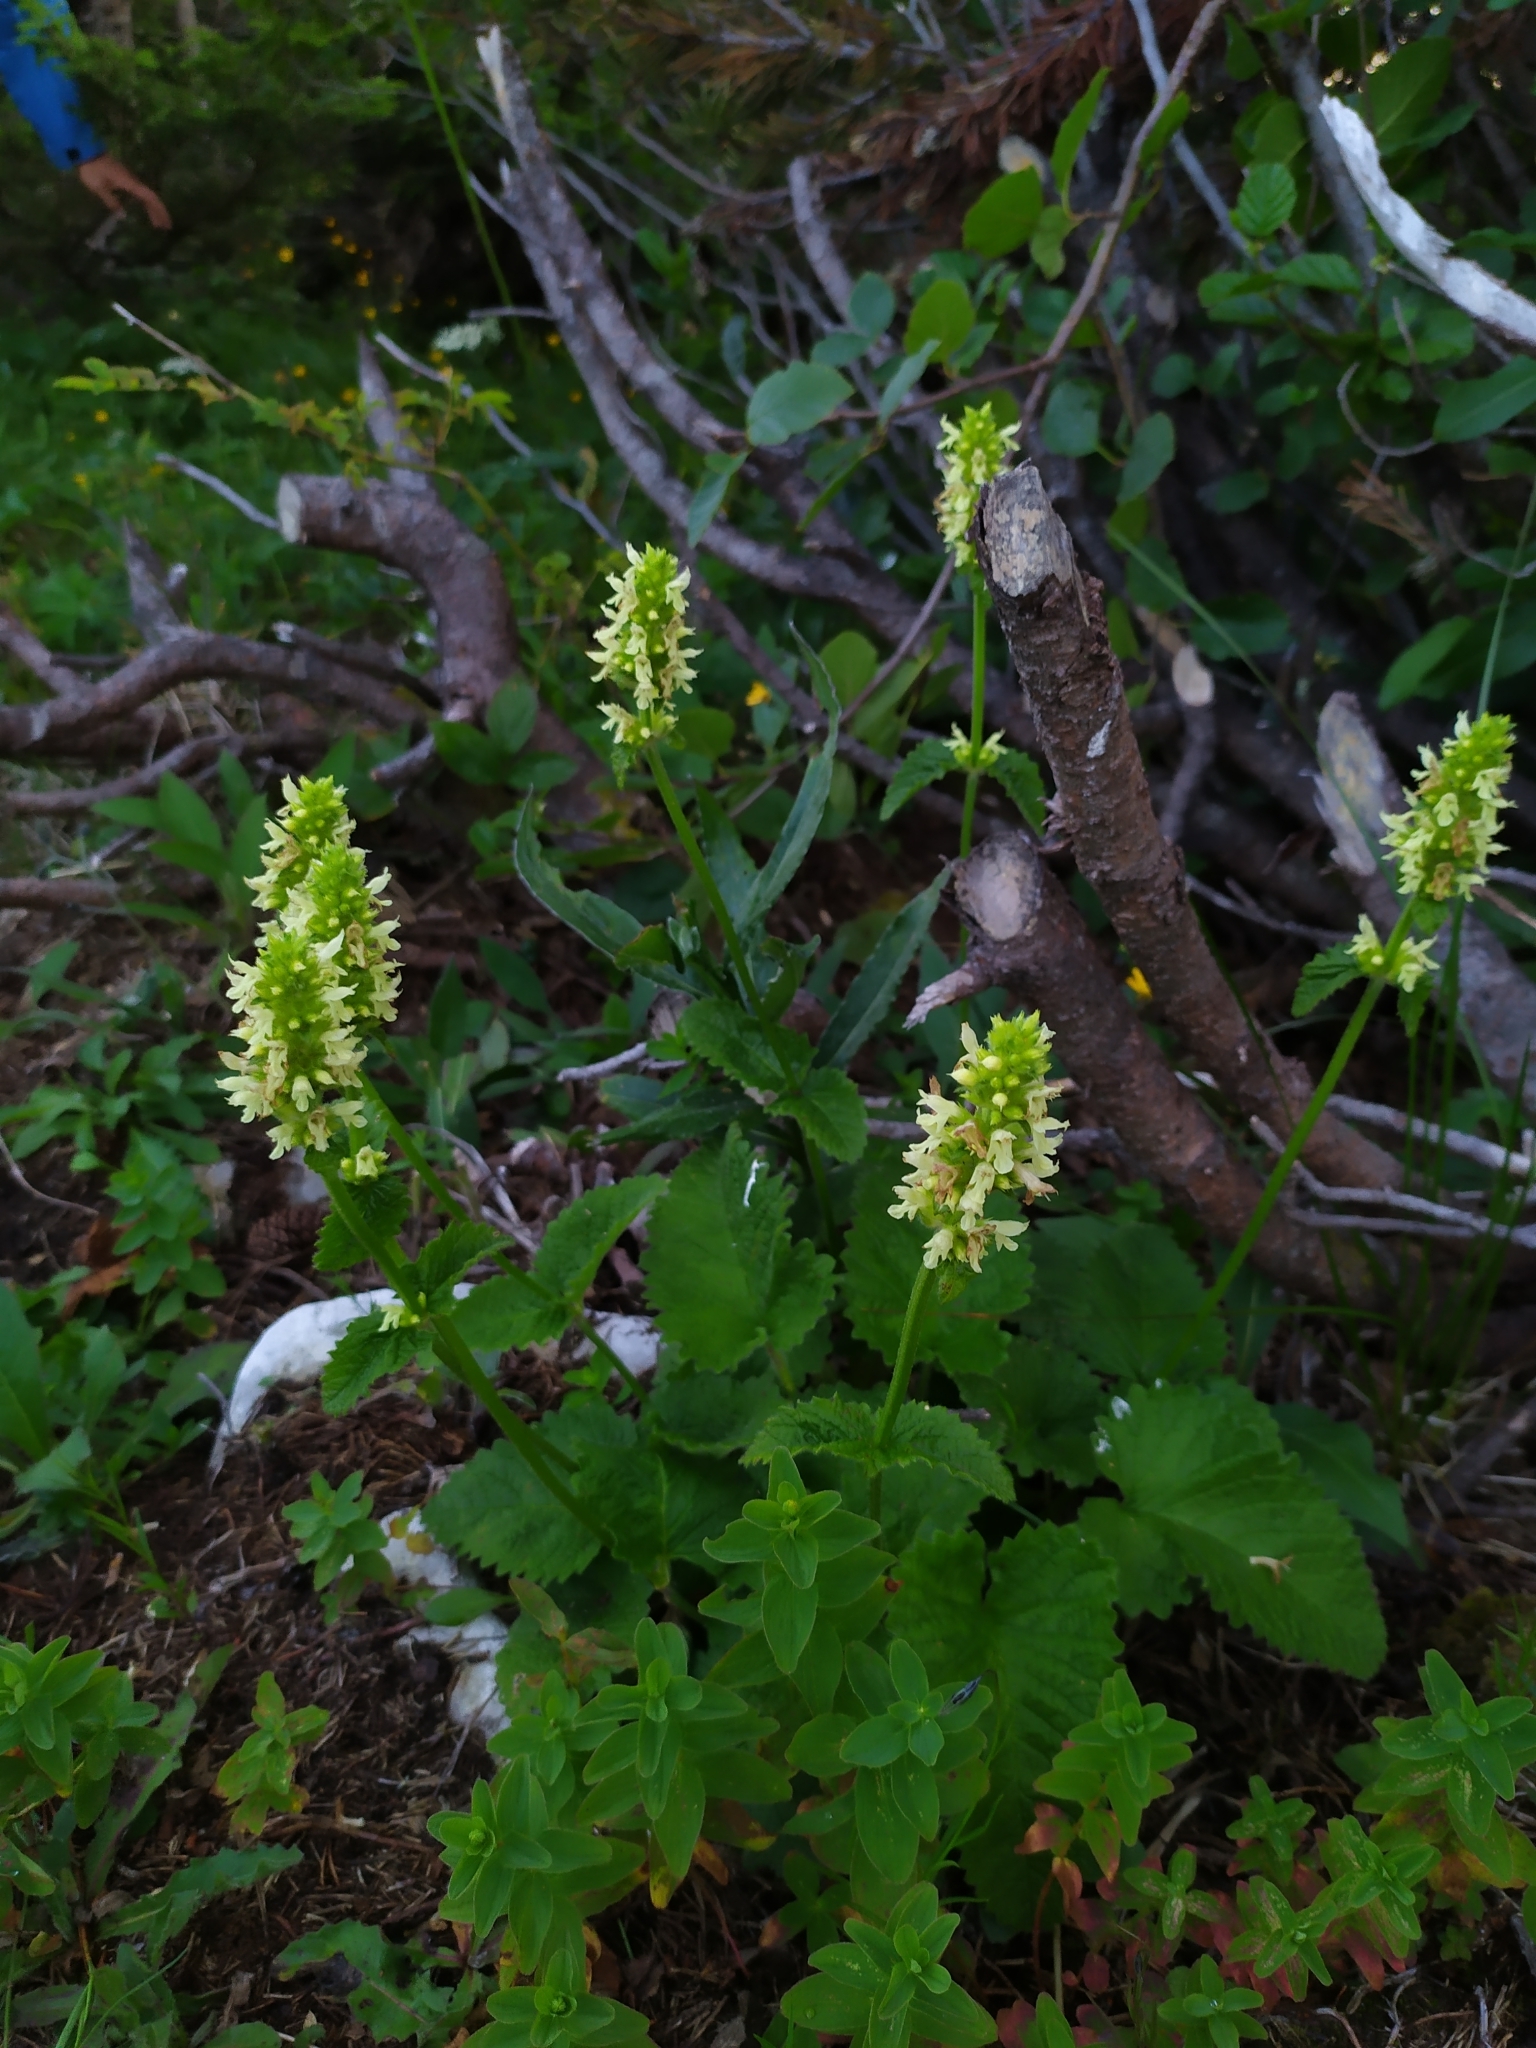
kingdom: Plantae
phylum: Tracheophyta
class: Magnoliopsida
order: Lamiales
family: Lamiaceae
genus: Betonica
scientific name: Betonica alopecuros
